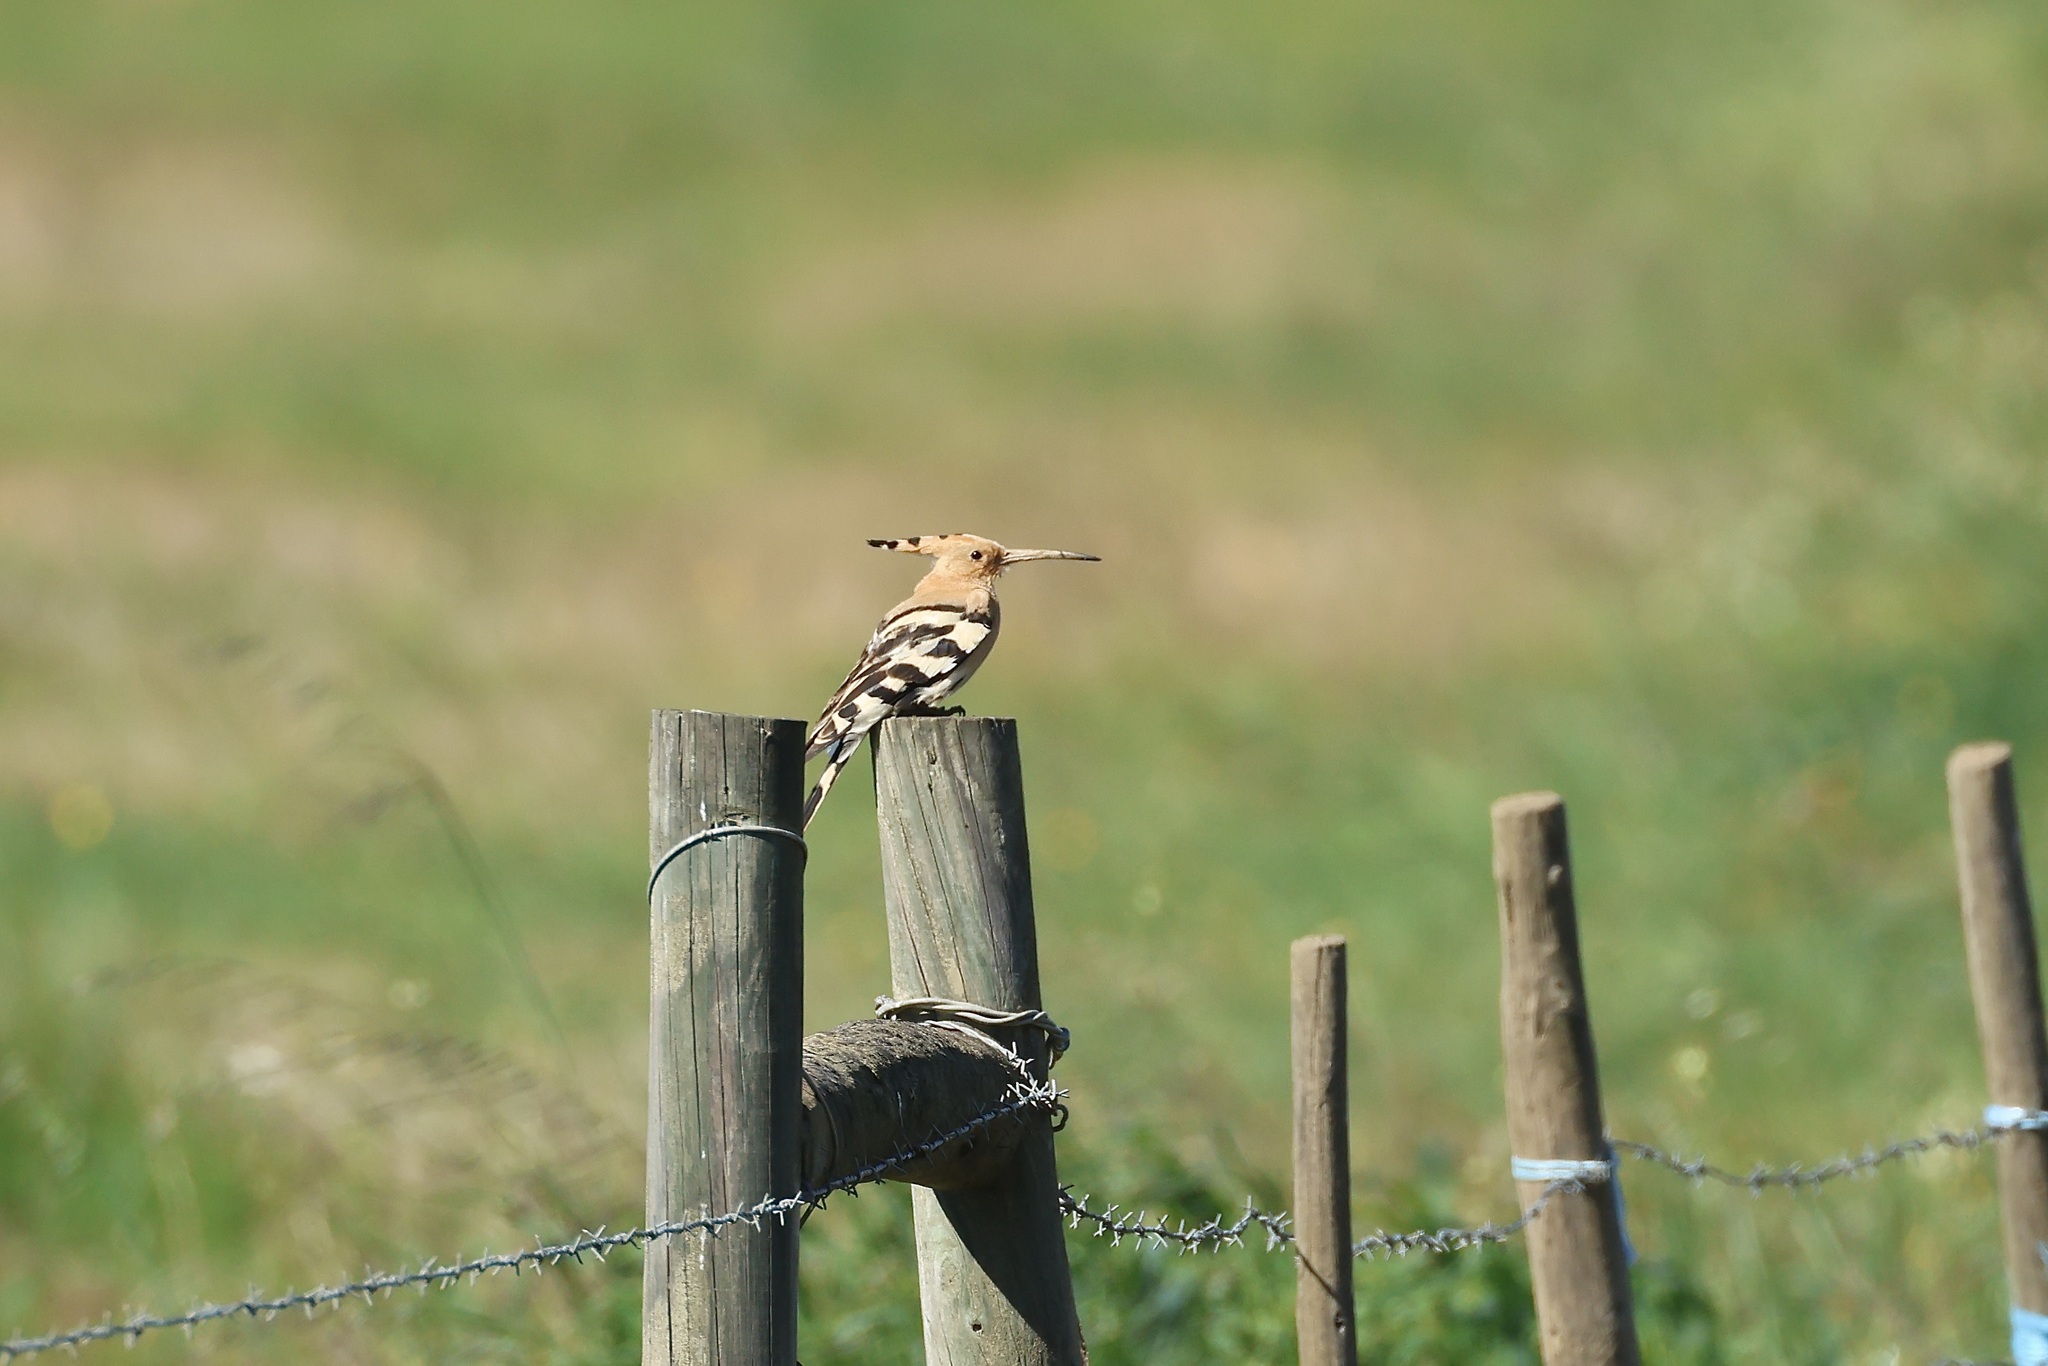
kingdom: Animalia
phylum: Chordata
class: Aves
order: Bucerotiformes
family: Upupidae
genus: Upupa
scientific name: Upupa epops
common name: Eurasian hoopoe
